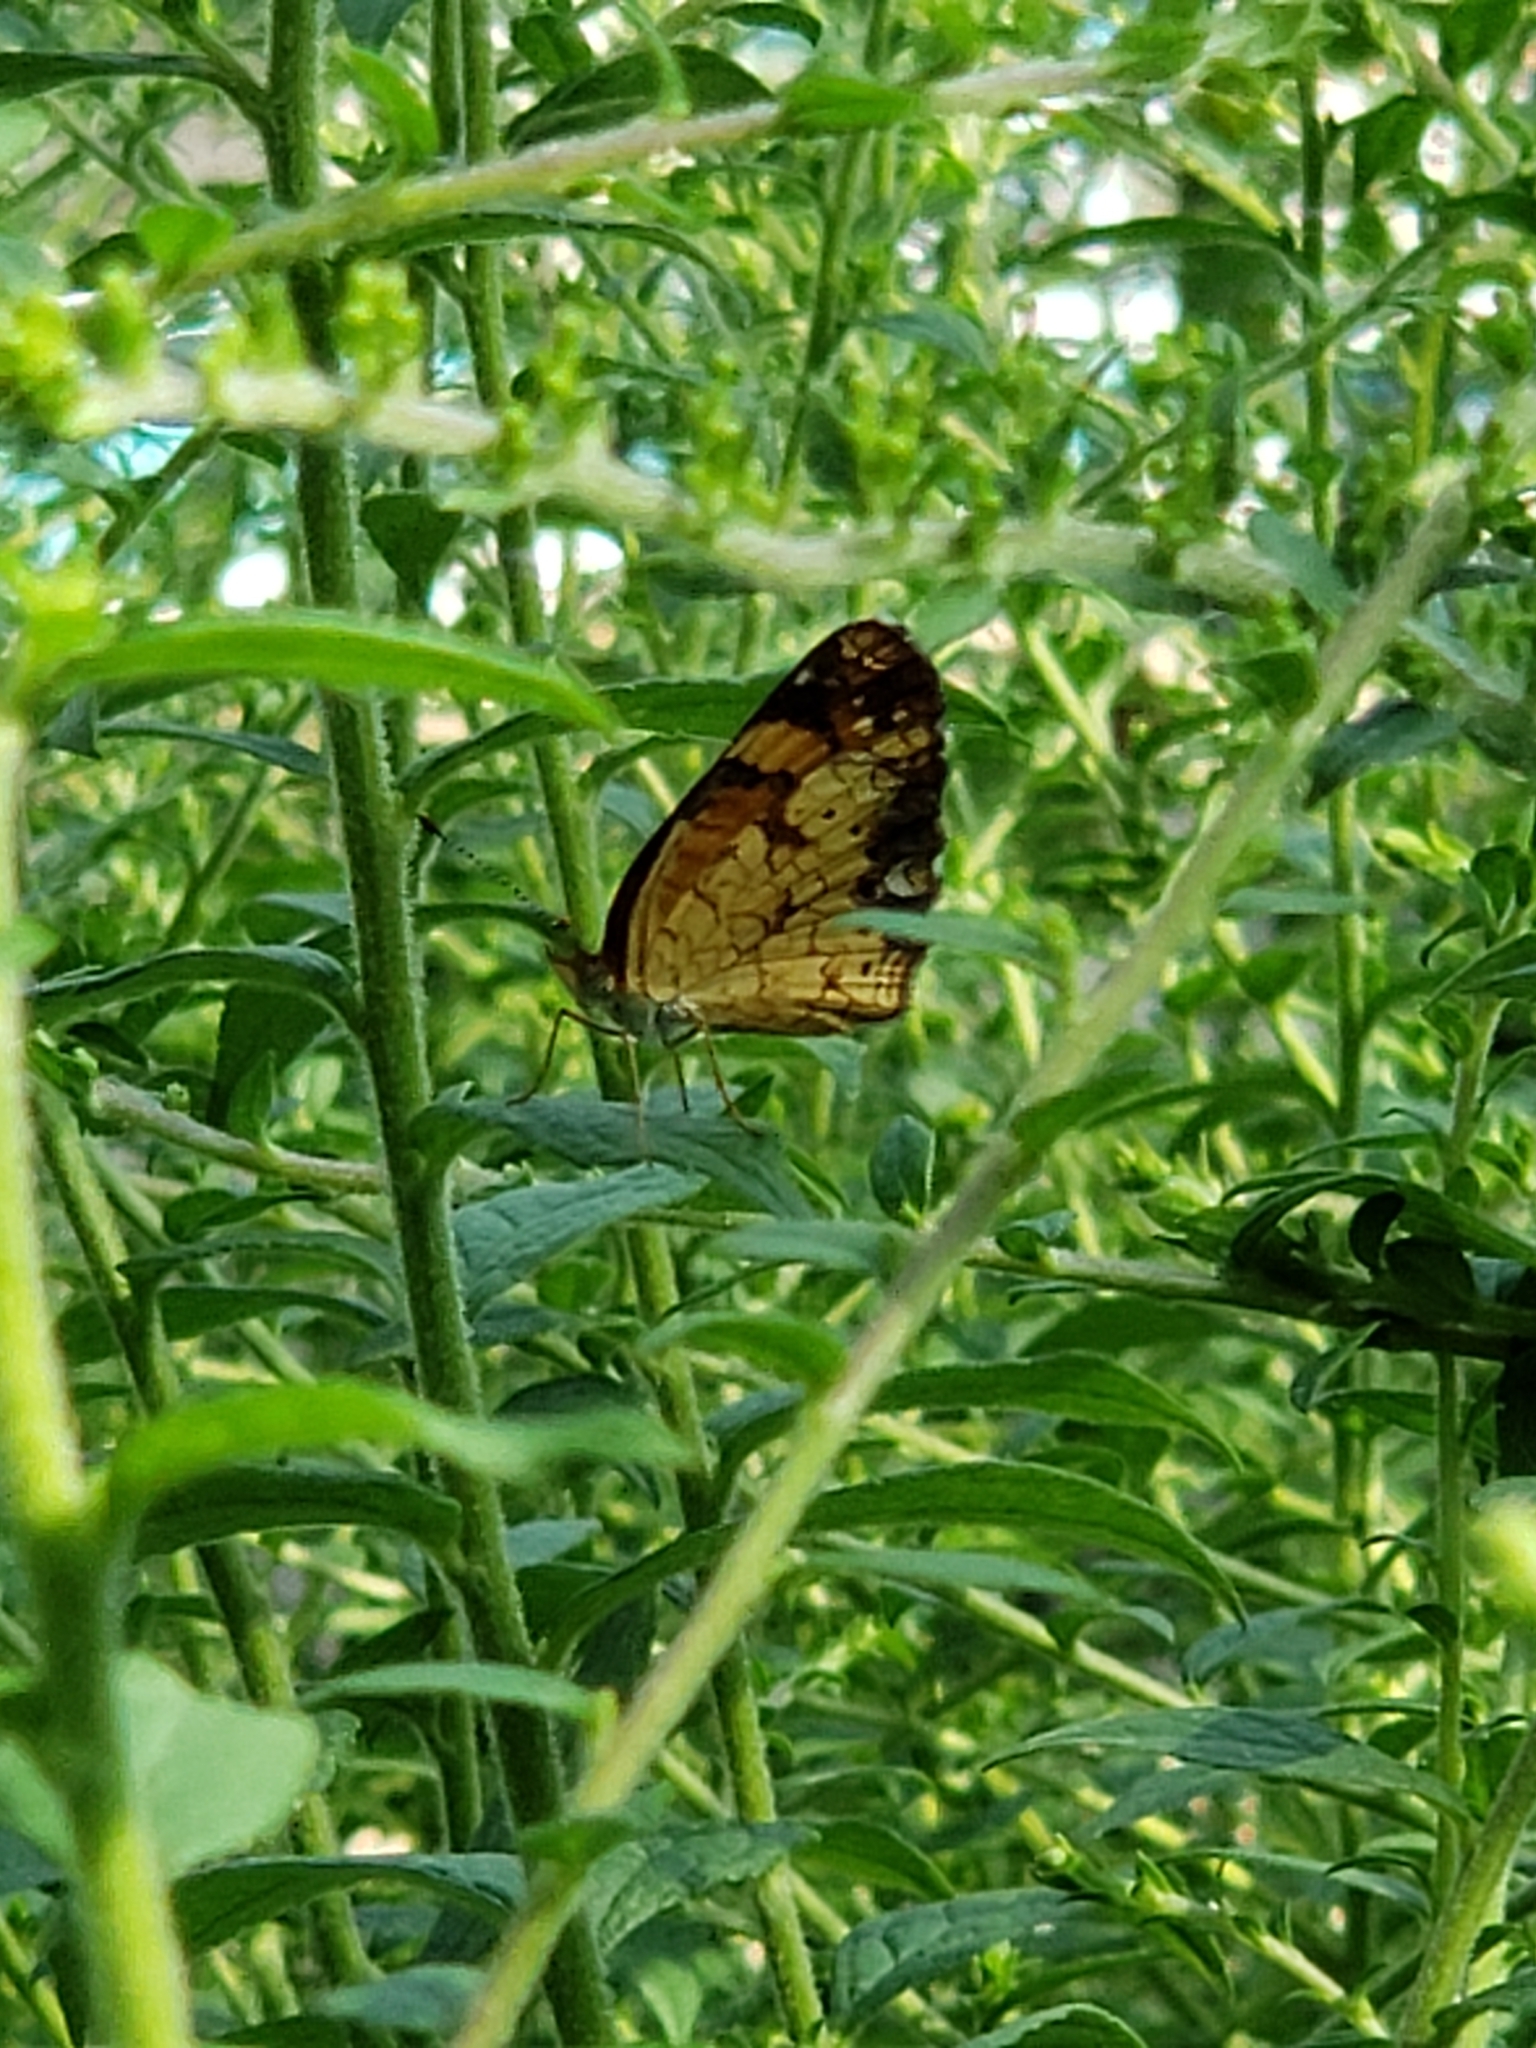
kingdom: Animalia
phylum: Arthropoda
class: Insecta
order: Lepidoptera
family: Nymphalidae
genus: Phyciodes
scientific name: Phyciodes tharos
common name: Pearl crescent
